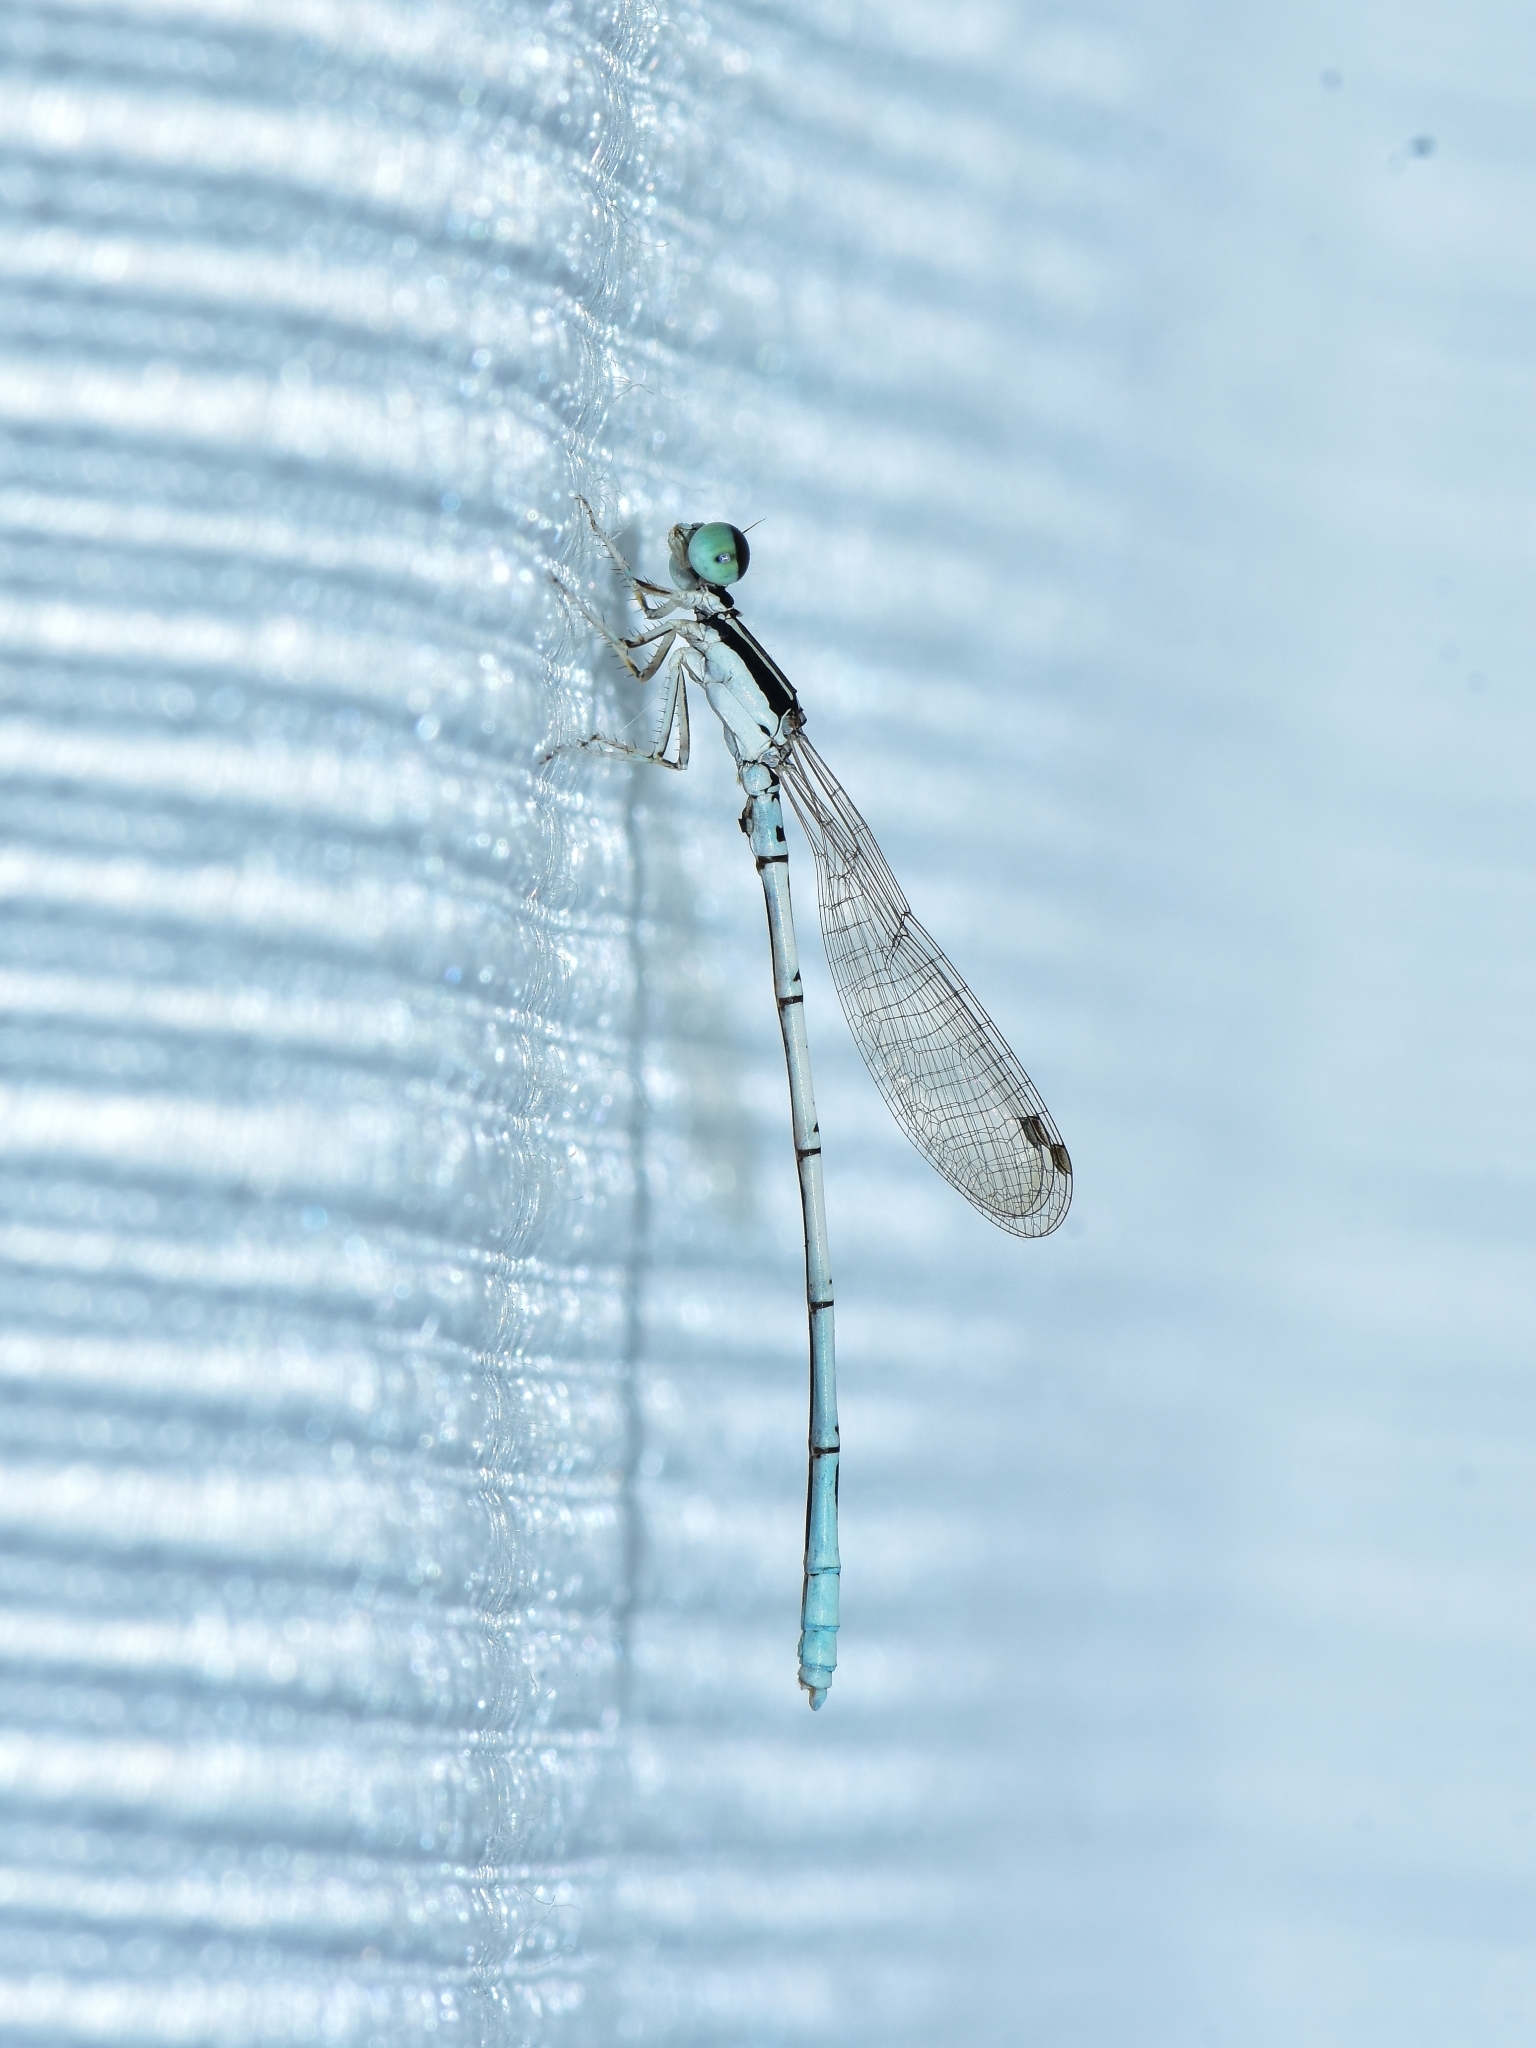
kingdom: Animalia
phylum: Arthropoda
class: Insecta
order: Odonata
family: Coenagrionidae
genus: Agriocnemis
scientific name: Agriocnemis pieris
